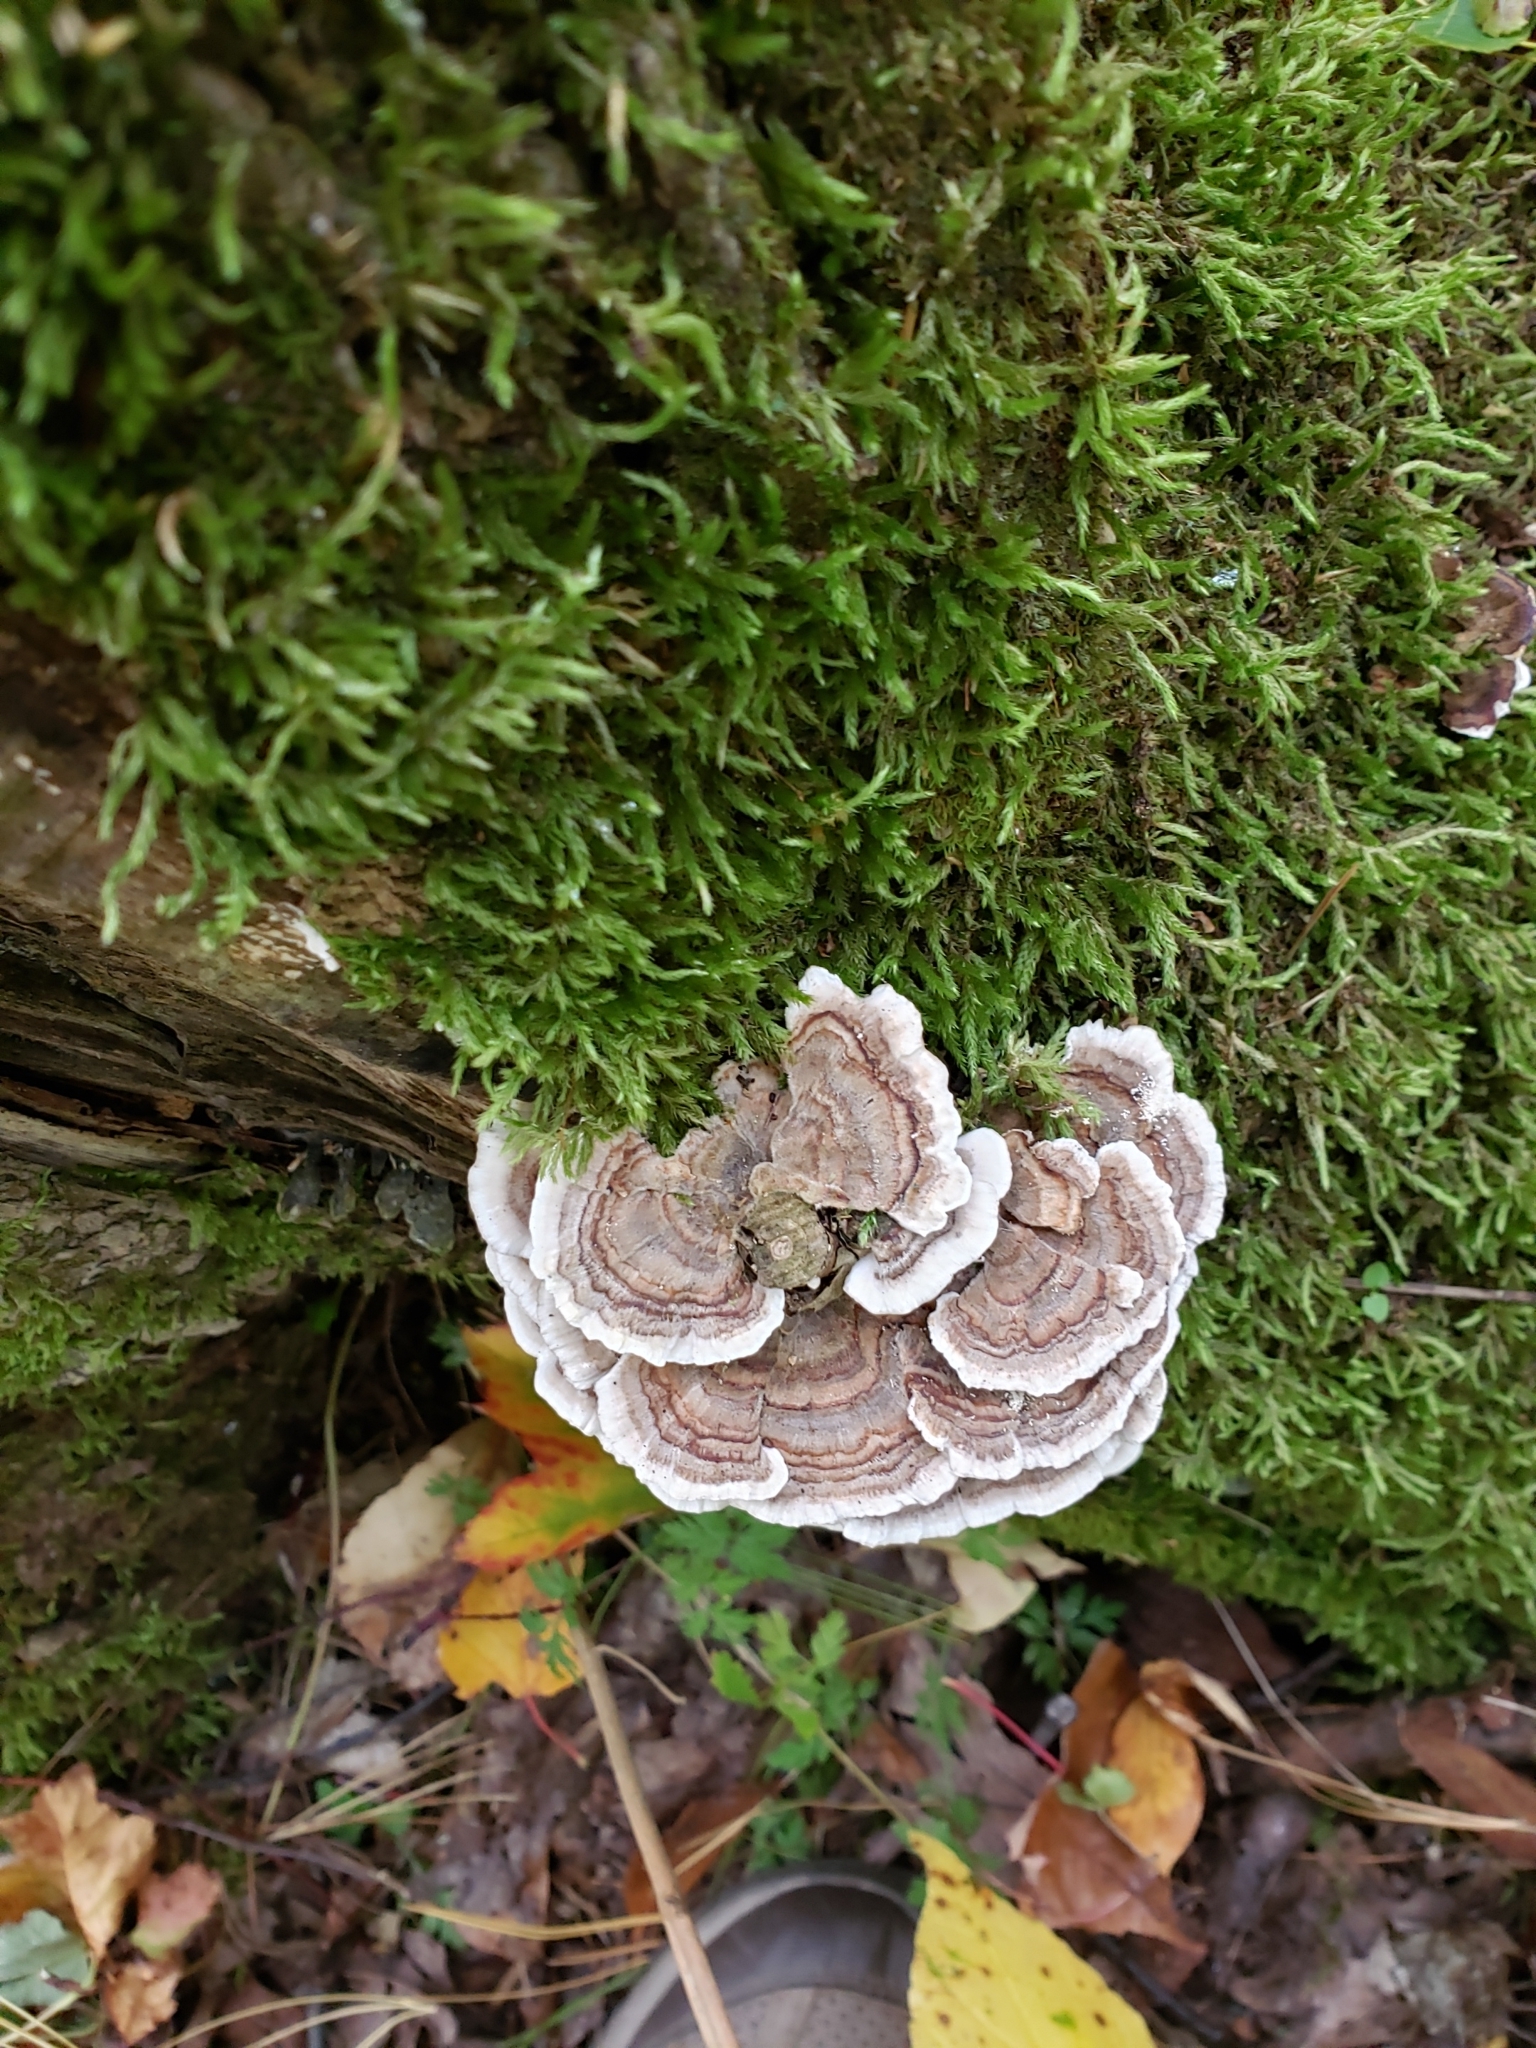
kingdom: Fungi
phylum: Basidiomycota
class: Agaricomycetes
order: Polyporales
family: Polyporaceae
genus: Trametes
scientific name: Trametes versicolor
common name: Turkeytail
